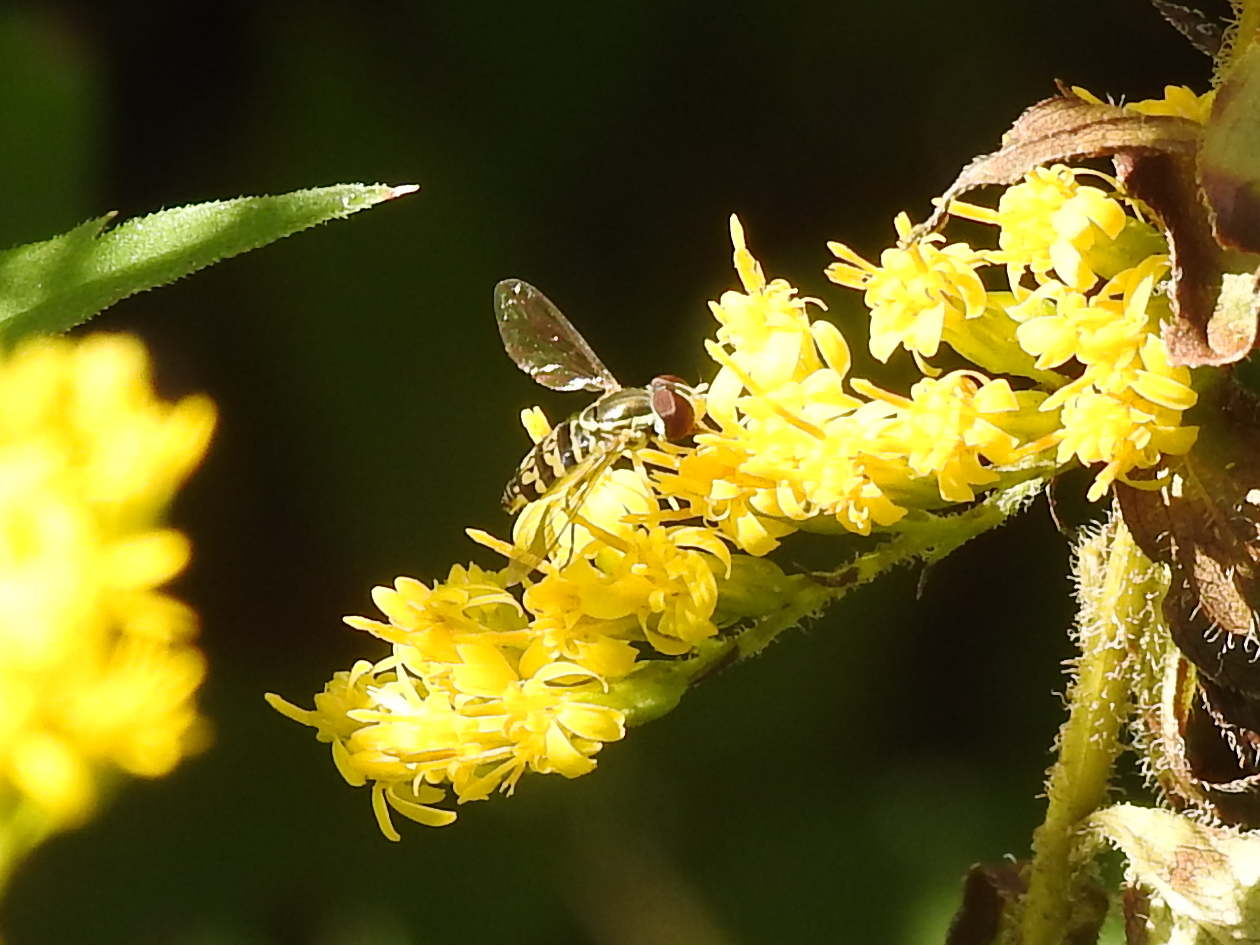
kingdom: Animalia
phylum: Arthropoda
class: Insecta
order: Diptera
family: Syrphidae
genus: Toxomerus
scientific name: Toxomerus geminatus
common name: Eastern calligrapher
